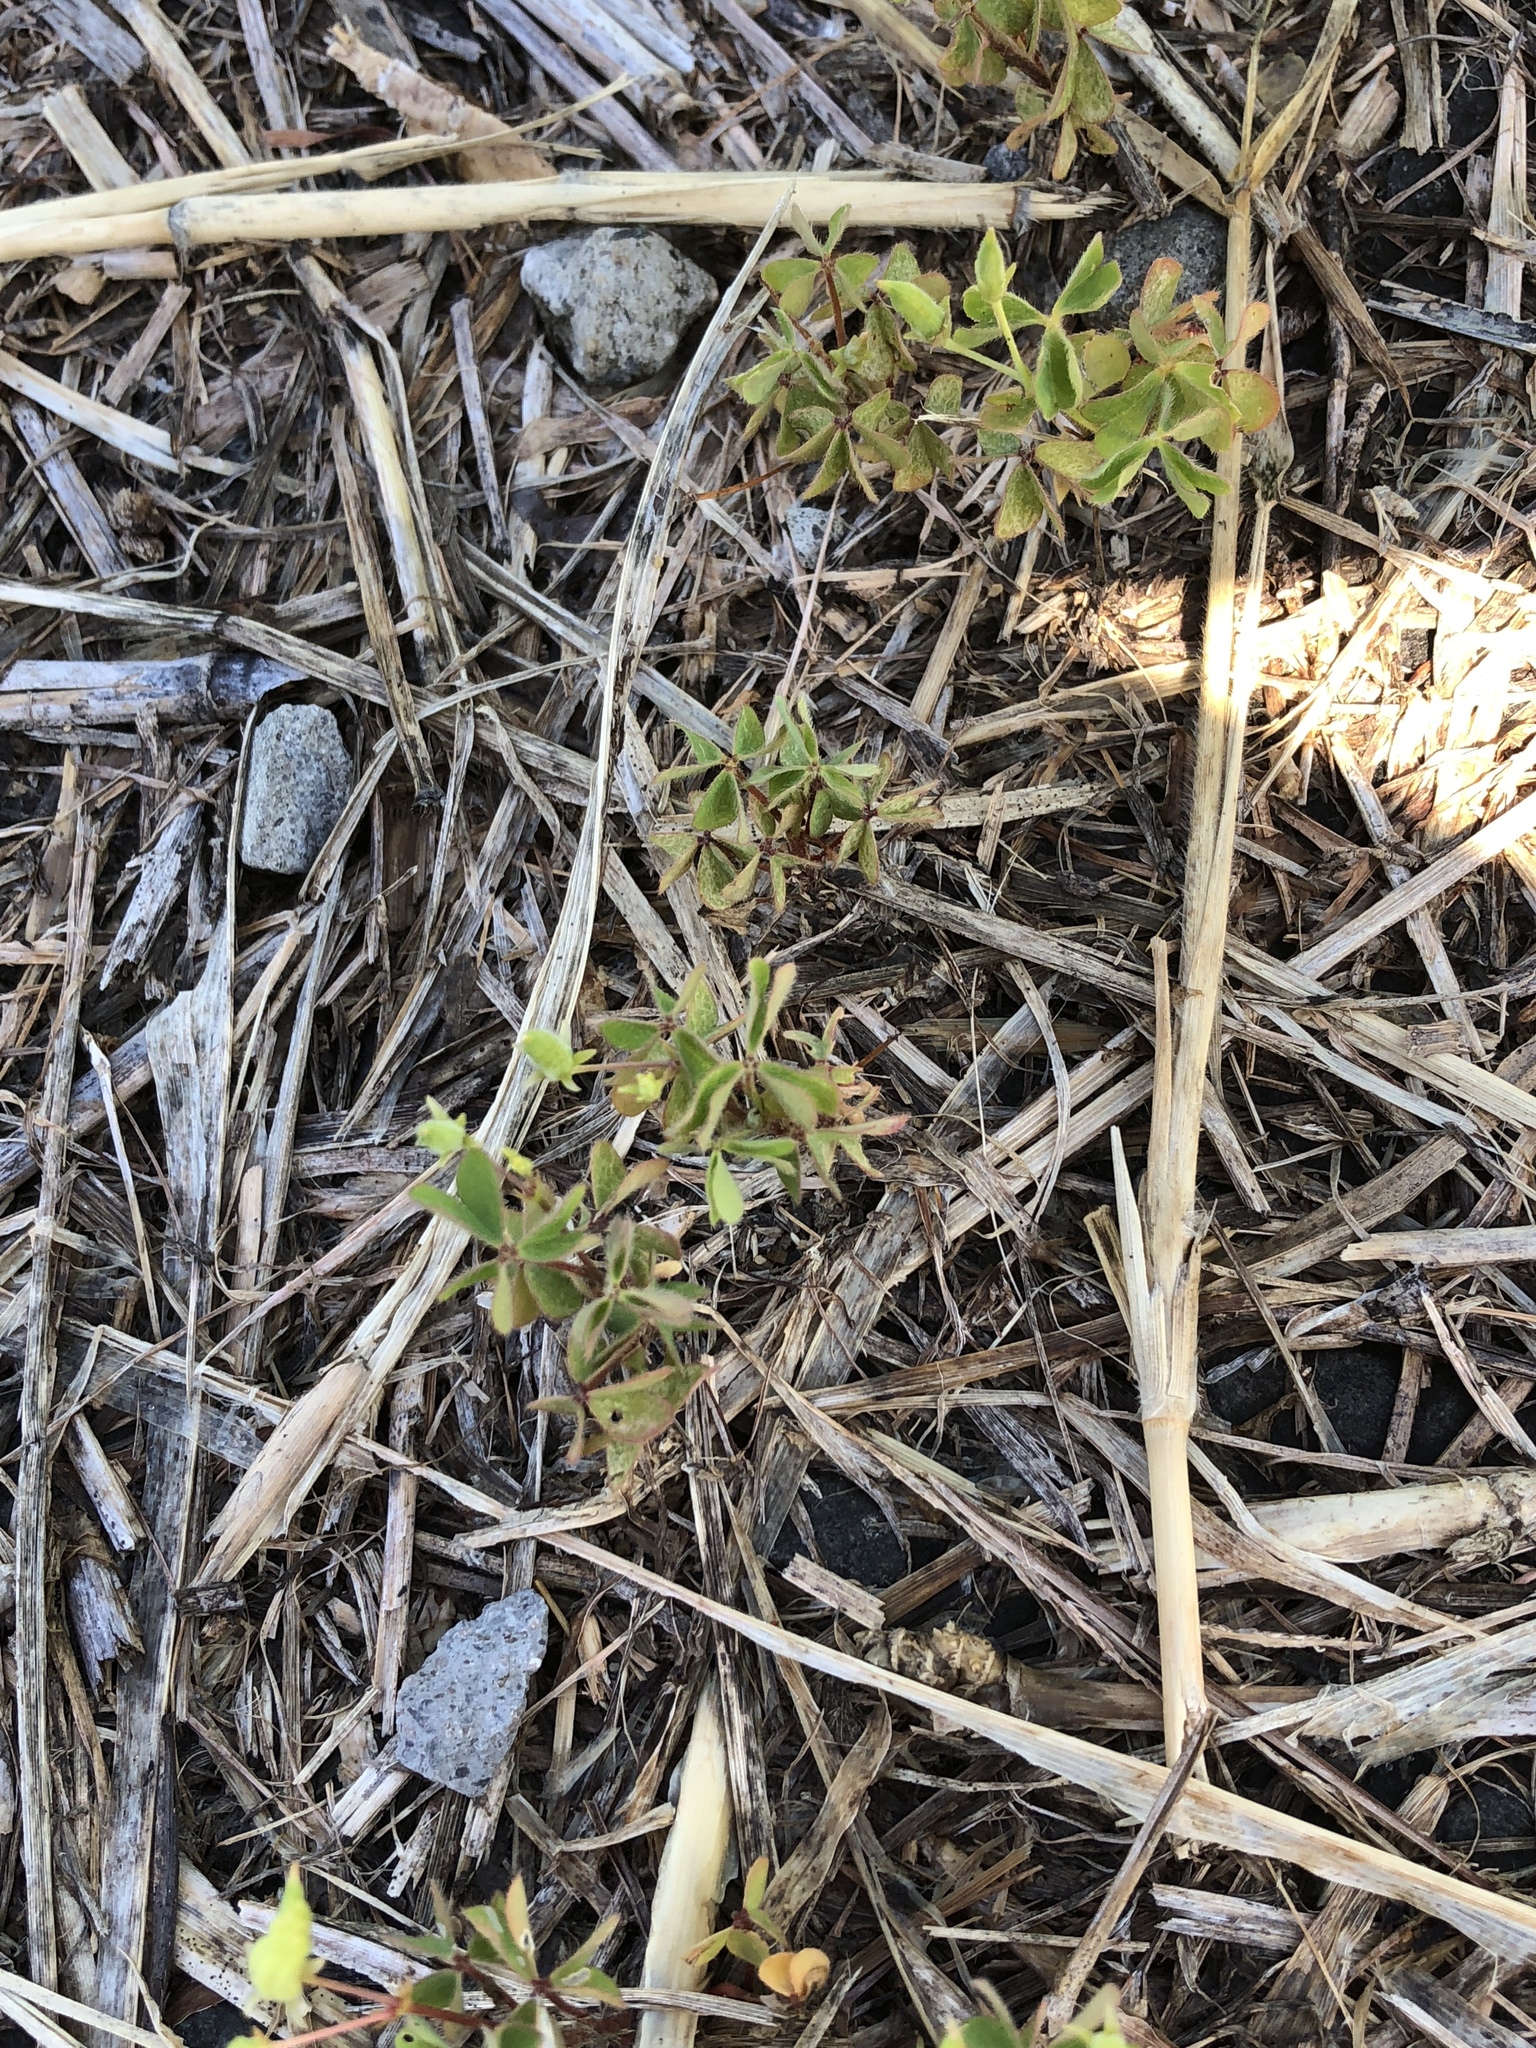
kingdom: Plantae
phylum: Tracheophyta
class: Magnoliopsida
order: Oxalidales
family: Oxalidaceae
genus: Oxalis
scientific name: Oxalis corniculata
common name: Procumbent yellow-sorrel
